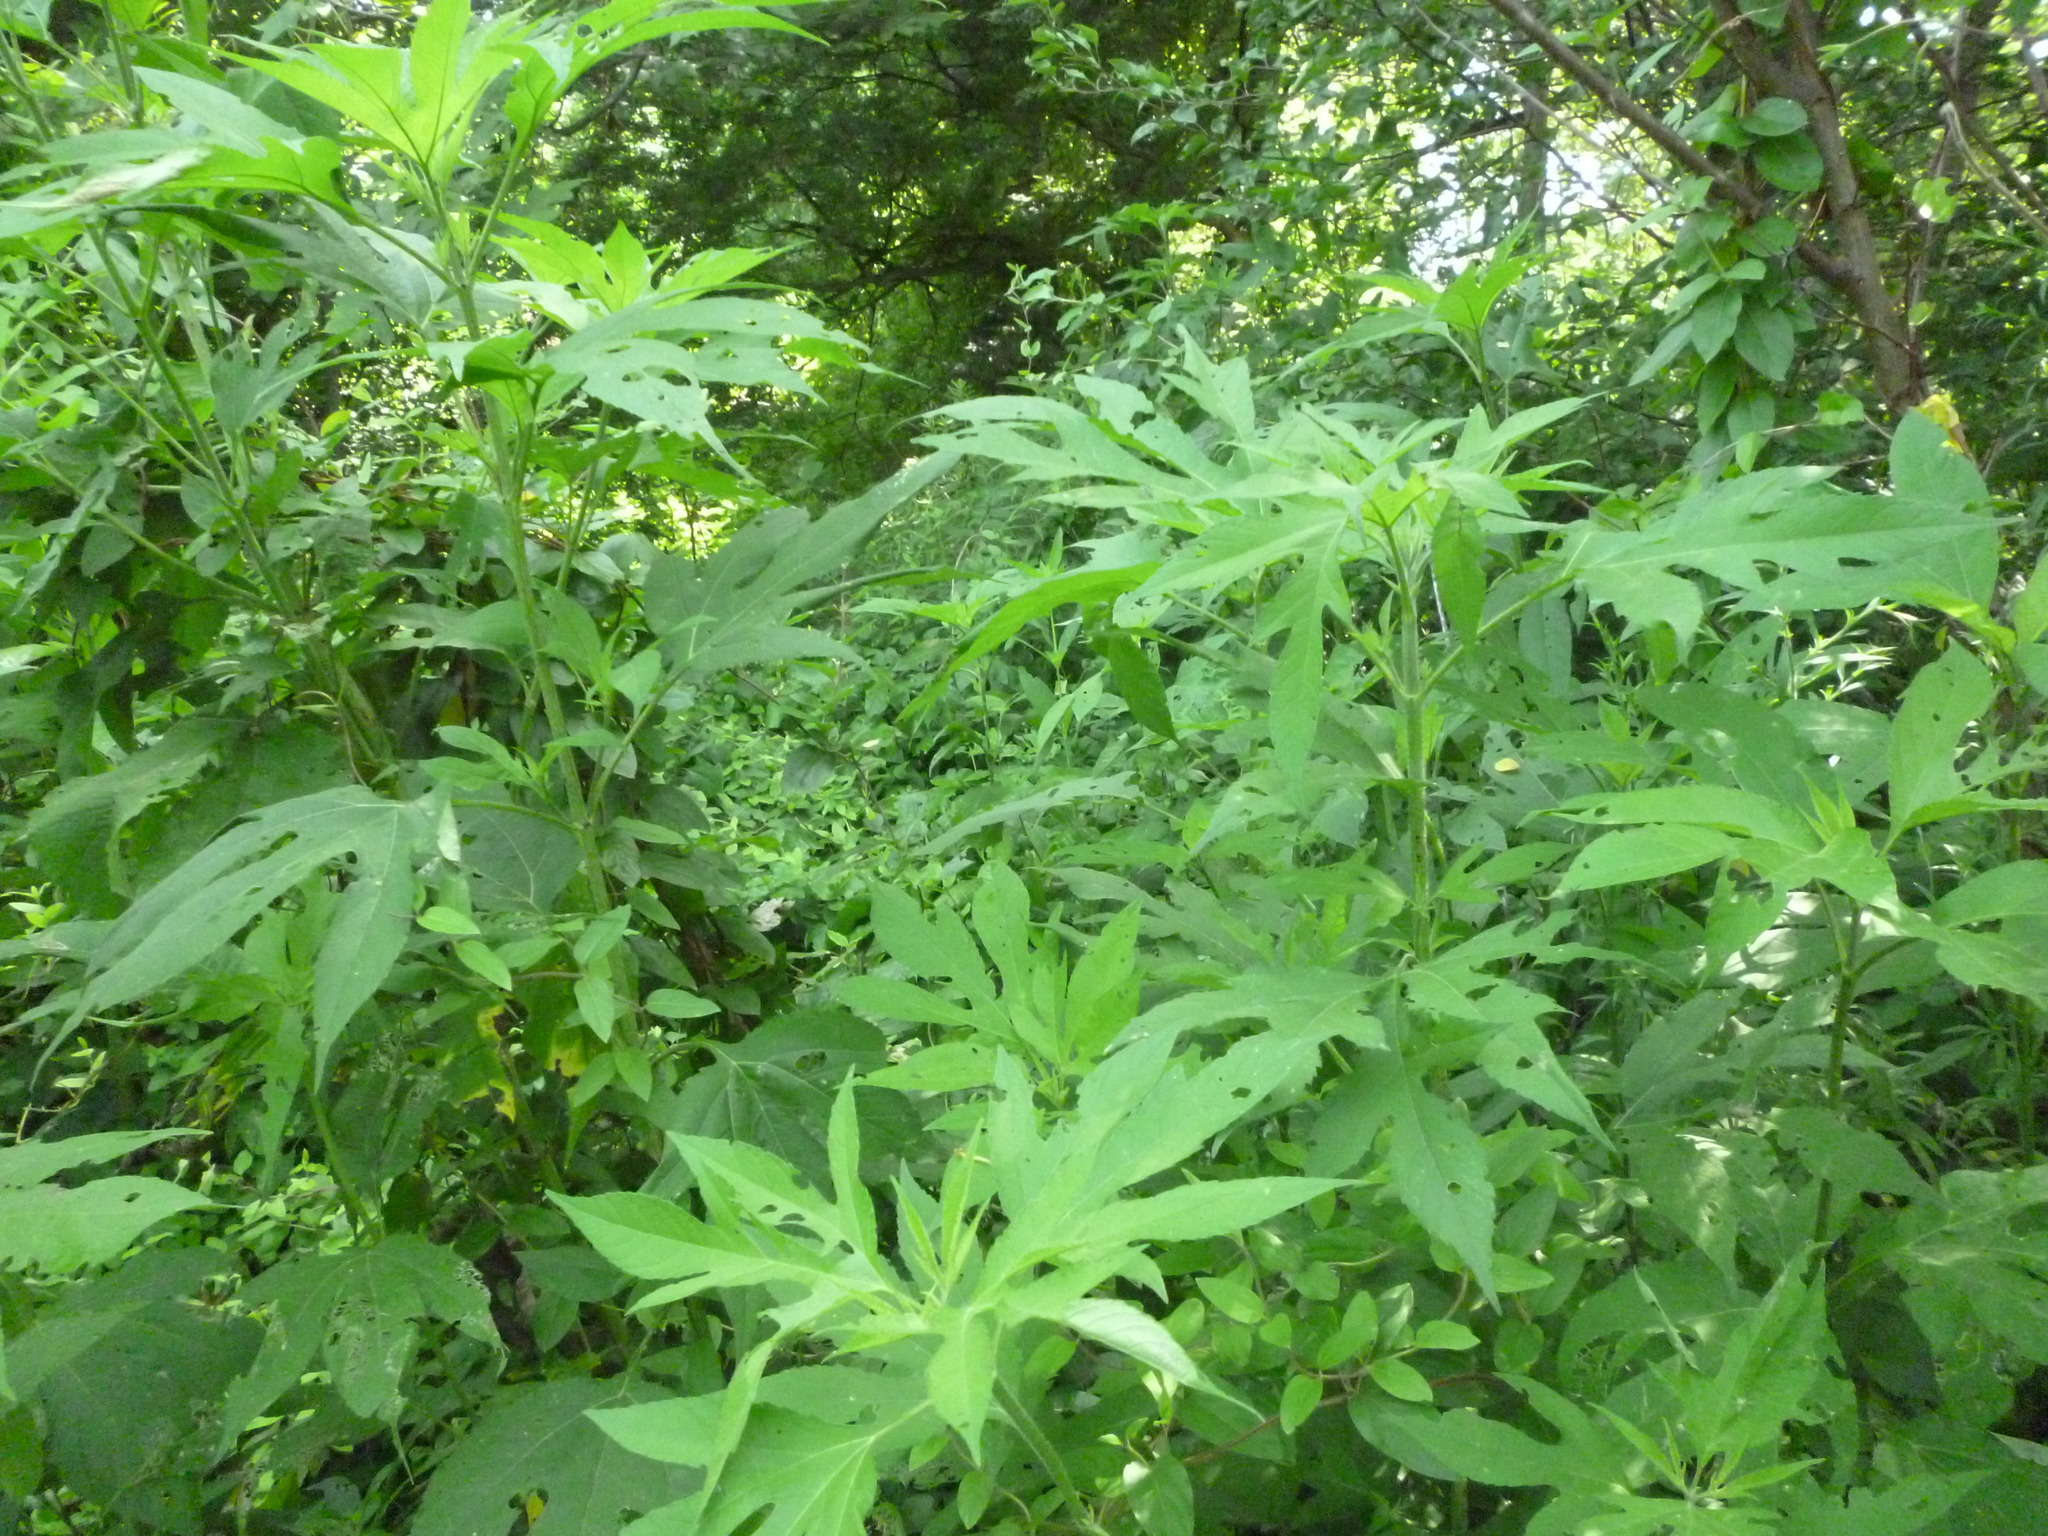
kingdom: Plantae
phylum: Tracheophyta
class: Magnoliopsida
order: Asterales
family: Asteraceae
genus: Ambrosia
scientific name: Ambrosia trifida
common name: Giant ragweed
